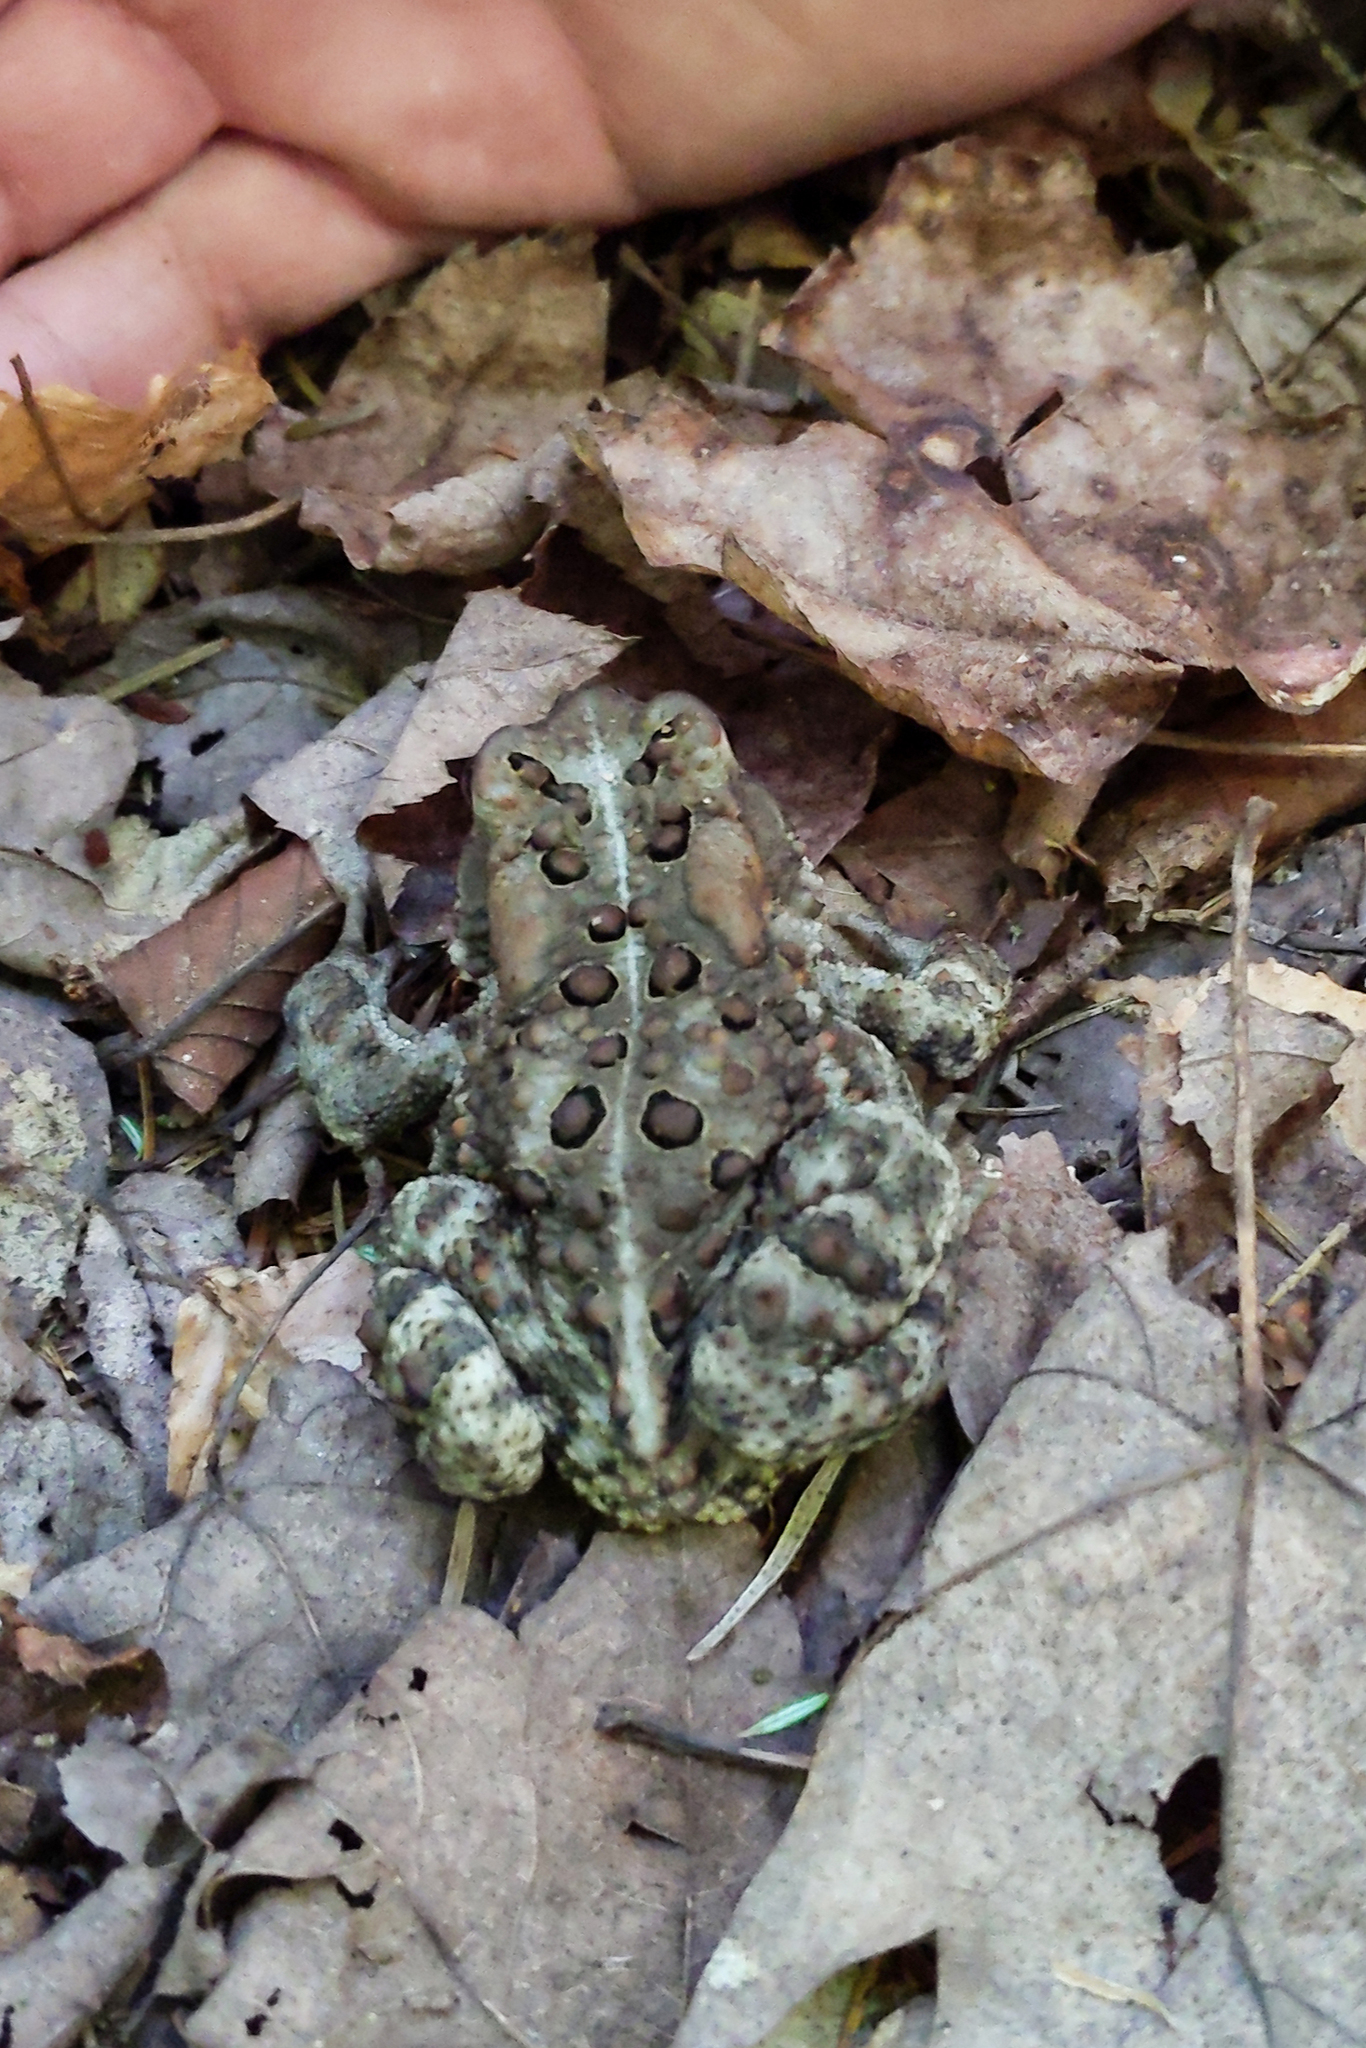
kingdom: Animalia
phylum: Chordata
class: Amphibia
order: Anura
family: Bufonidae
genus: Anaxyrus
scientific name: Anaxyrus americanus
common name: American toad
